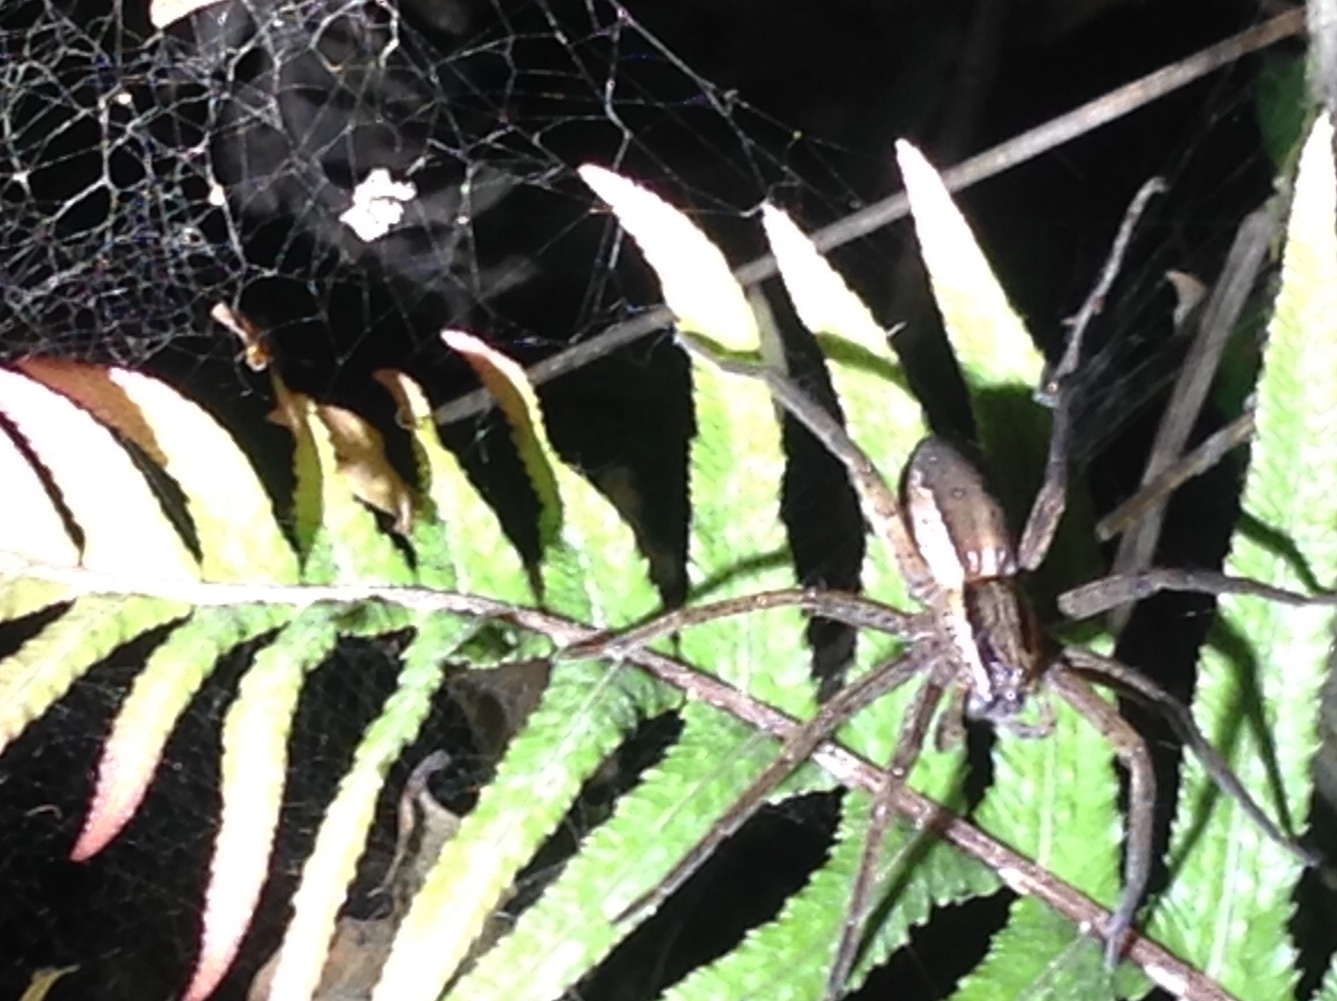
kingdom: Animalia
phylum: Arthropoda
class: Arachnida
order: Araneae
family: Pisauridae
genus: Dolomedes
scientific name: Dolomedes minor
